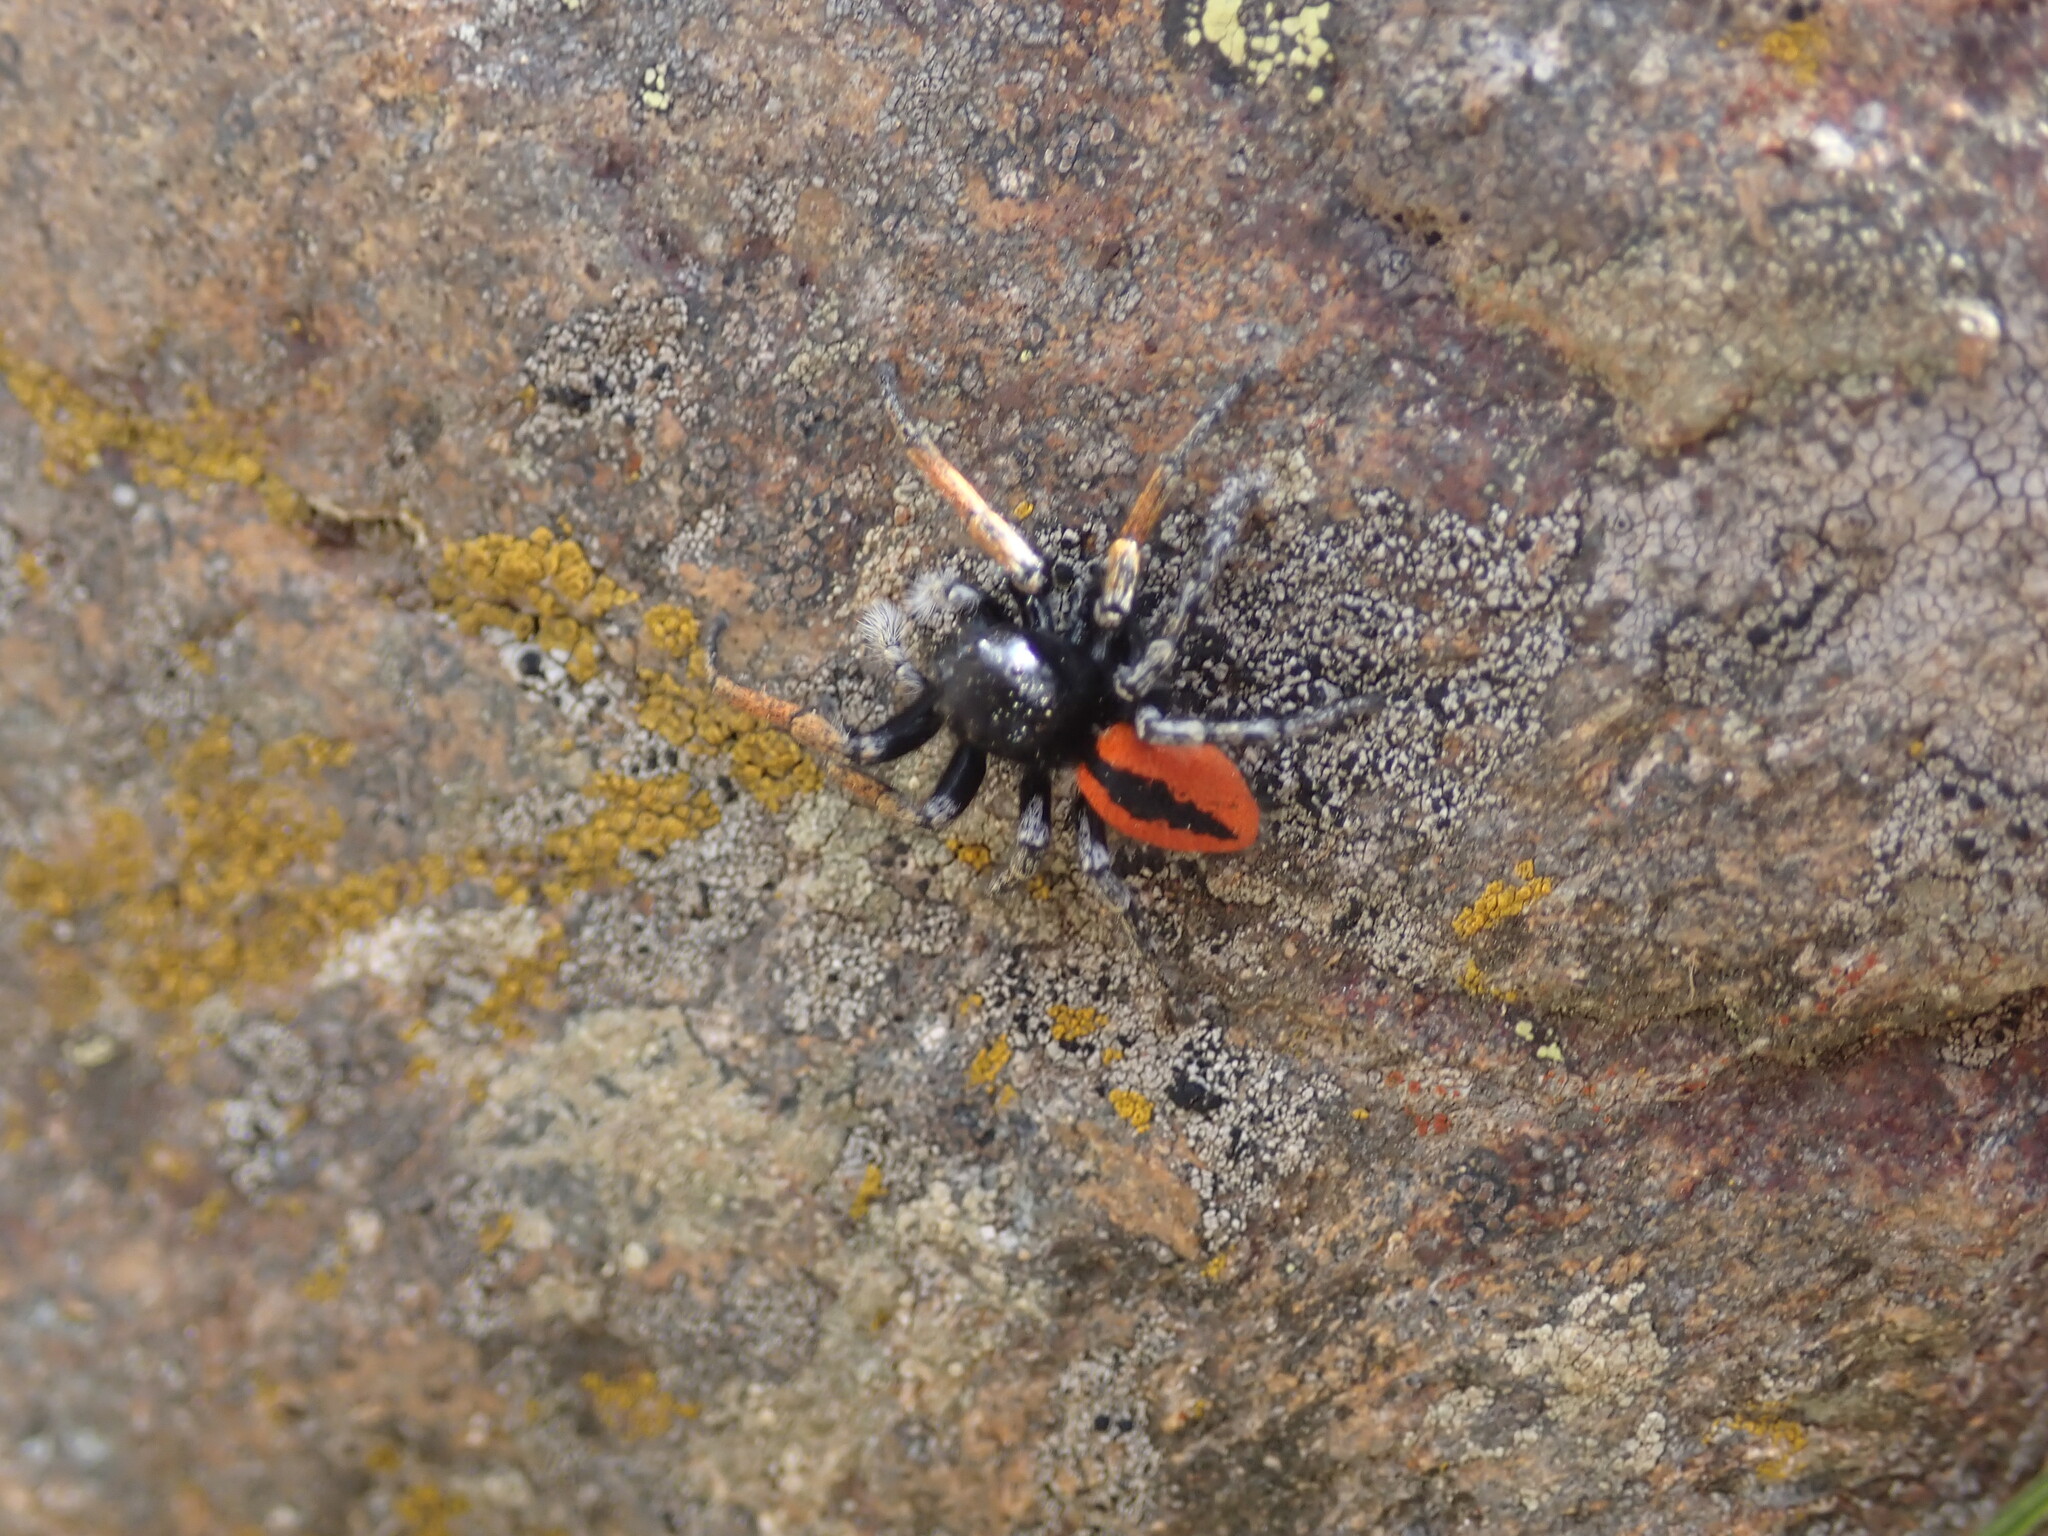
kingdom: Animalia
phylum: Arthropoda
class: Arachnida
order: Araneae
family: Salticidae
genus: Philaeus
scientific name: Philaeus chrysops
